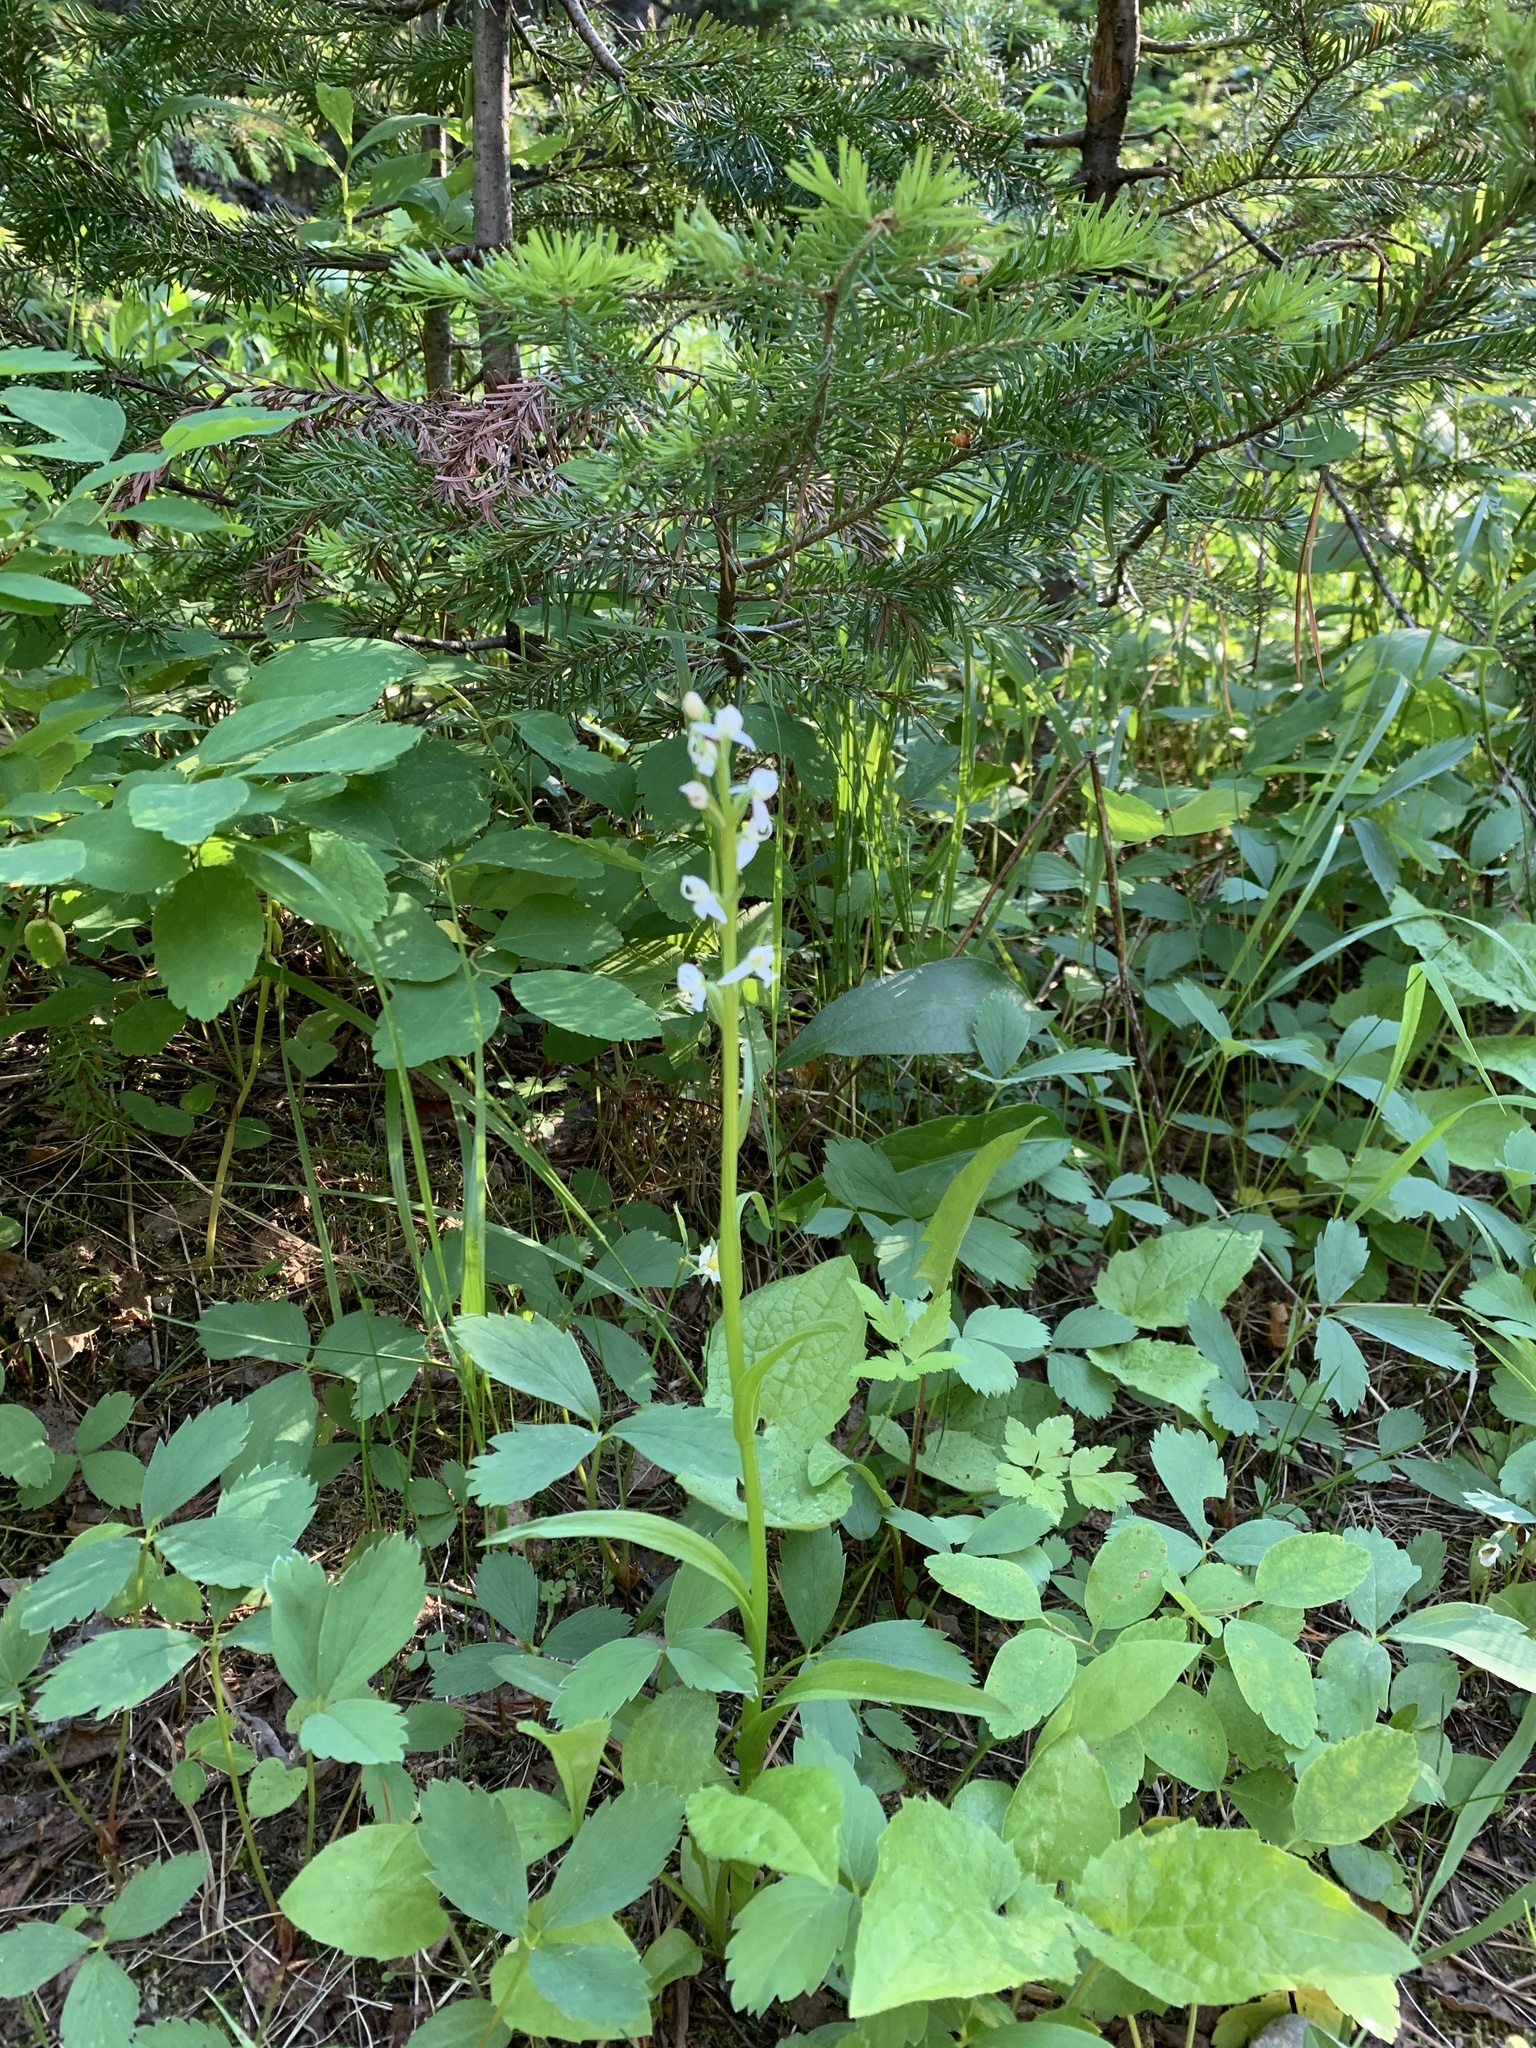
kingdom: Plantae
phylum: Tracheophyta
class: Liliopsida
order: Asparagales
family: Orchidaceae
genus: Platanthera
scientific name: Platanthera dilatata
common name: Bog candles
